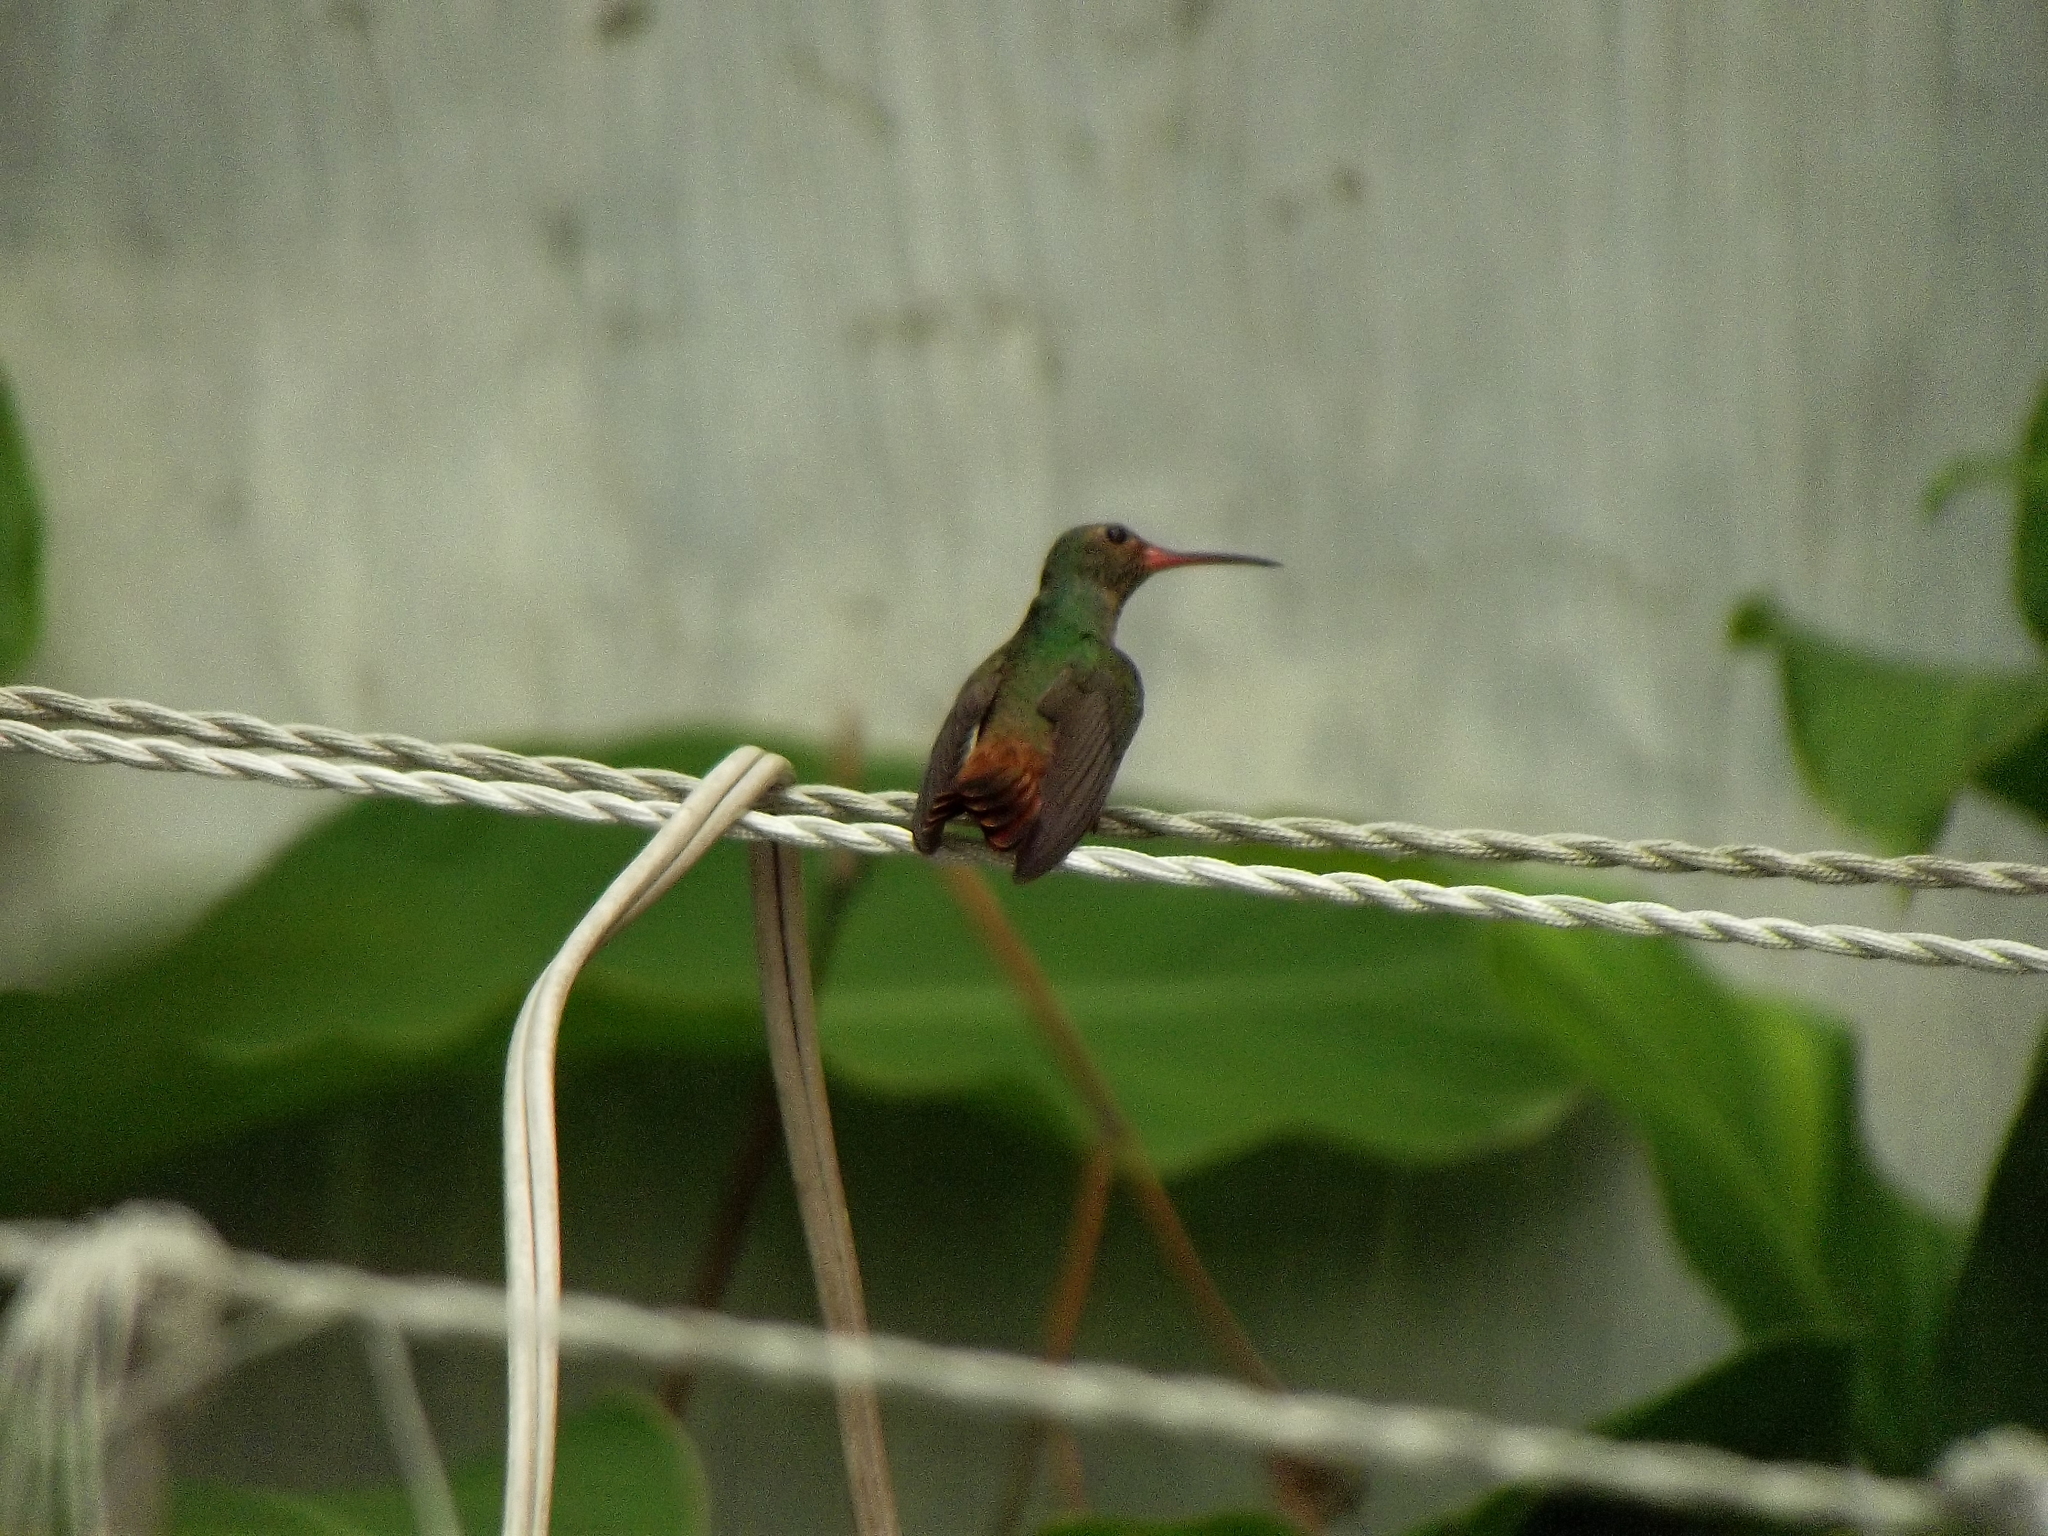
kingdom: Animalia
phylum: Chordata
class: Aves
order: Apodiformes
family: Trochilidae
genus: Amazilia
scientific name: Amazilia yucatanensis
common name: Buff-bellied hummingbird
